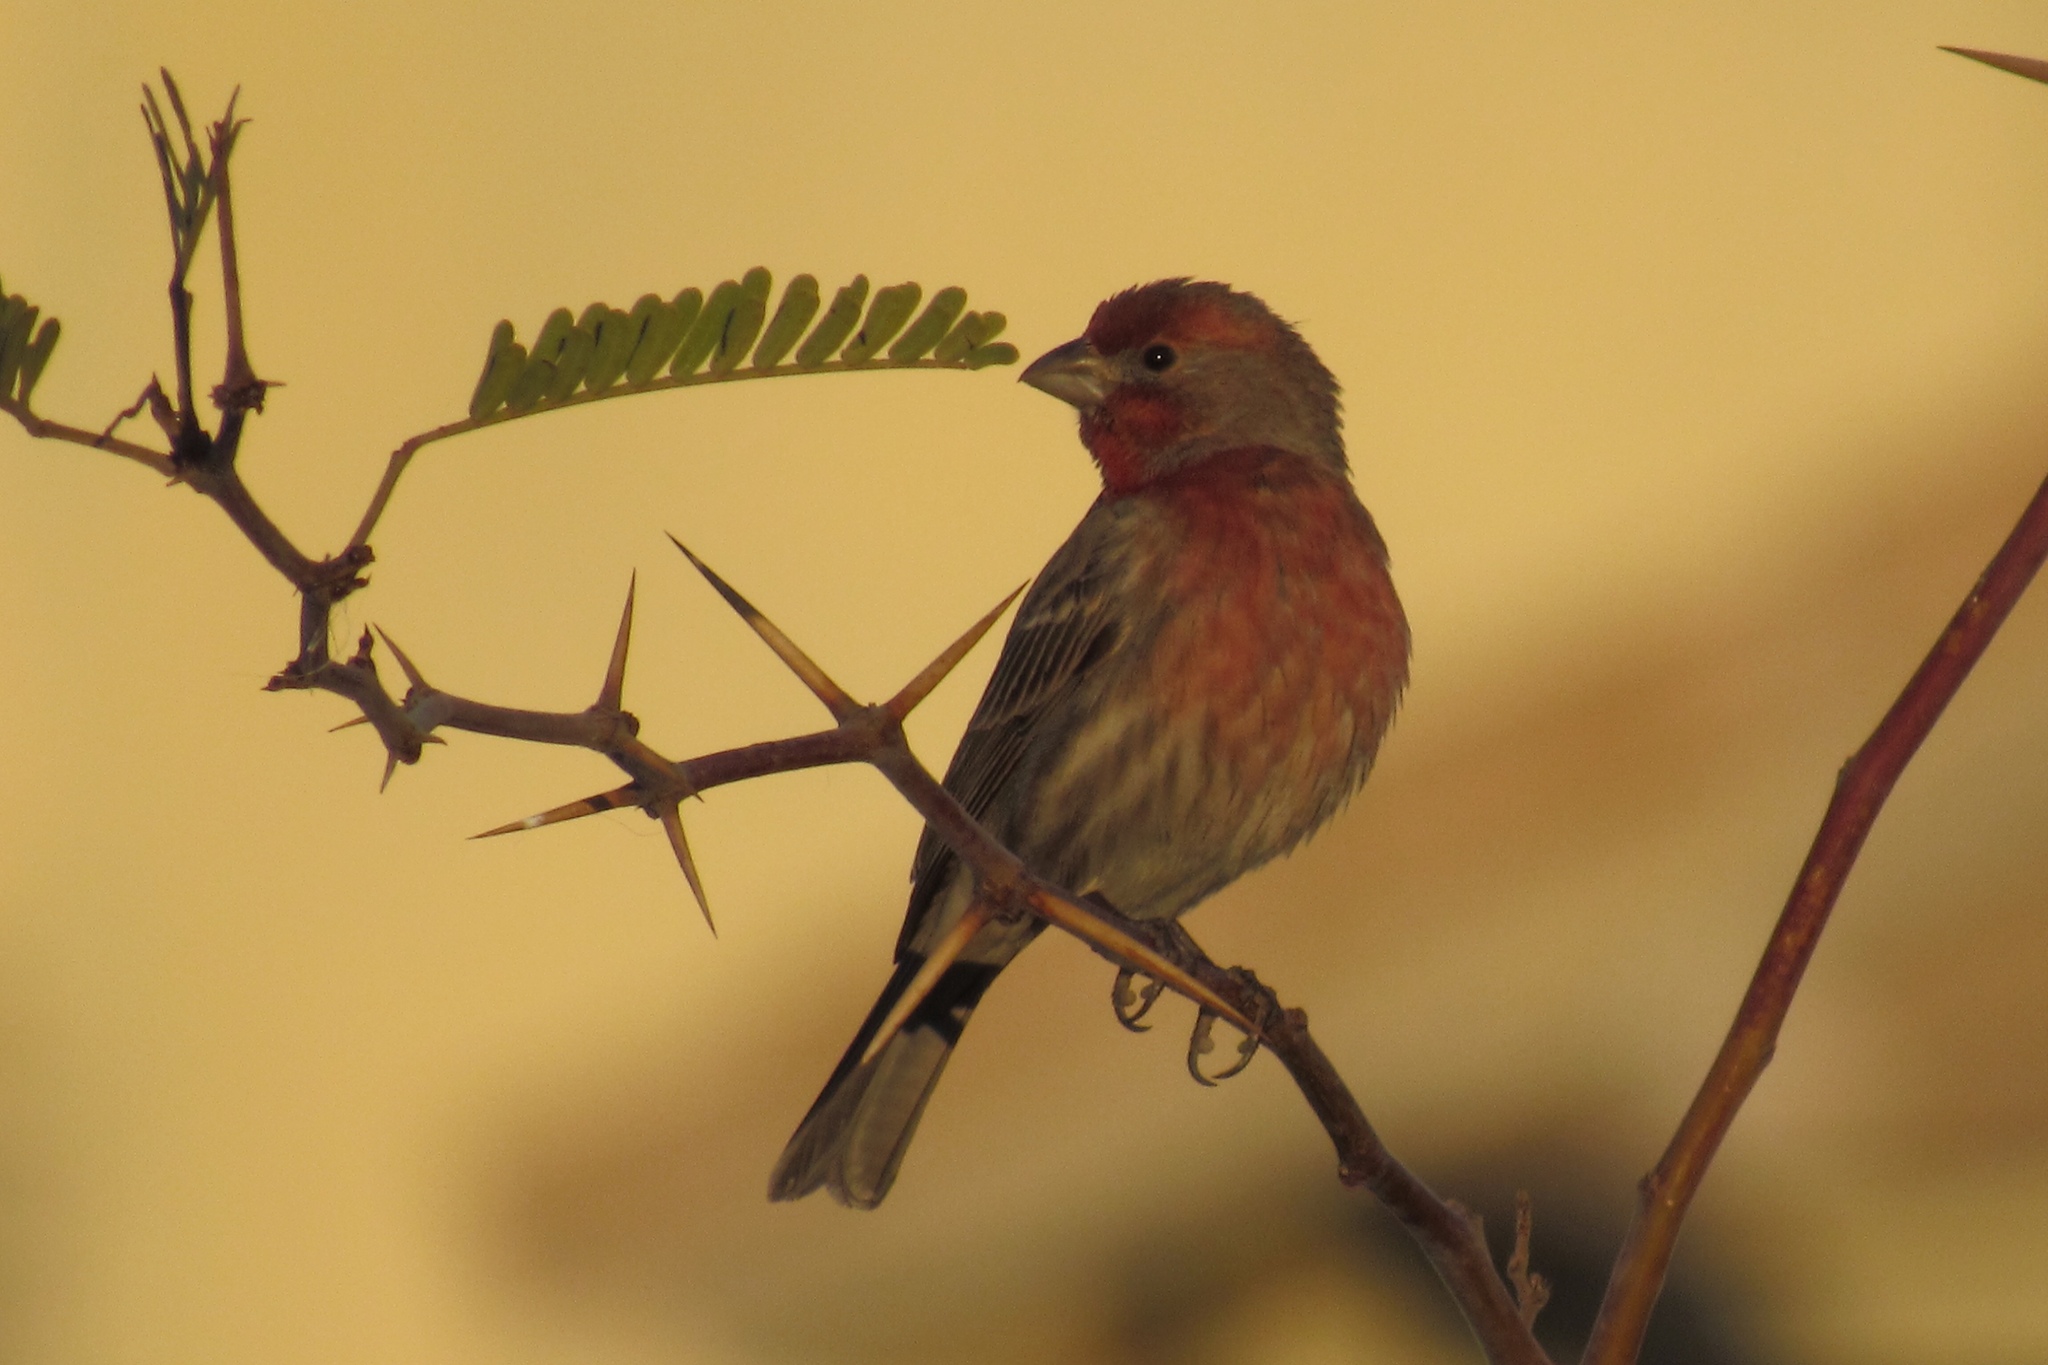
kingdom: Animalia
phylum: Chordata
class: Aves
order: Passeriformes
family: Fringillidae
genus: Haemorhous
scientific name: Haemorhous mexicanus
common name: House finch
